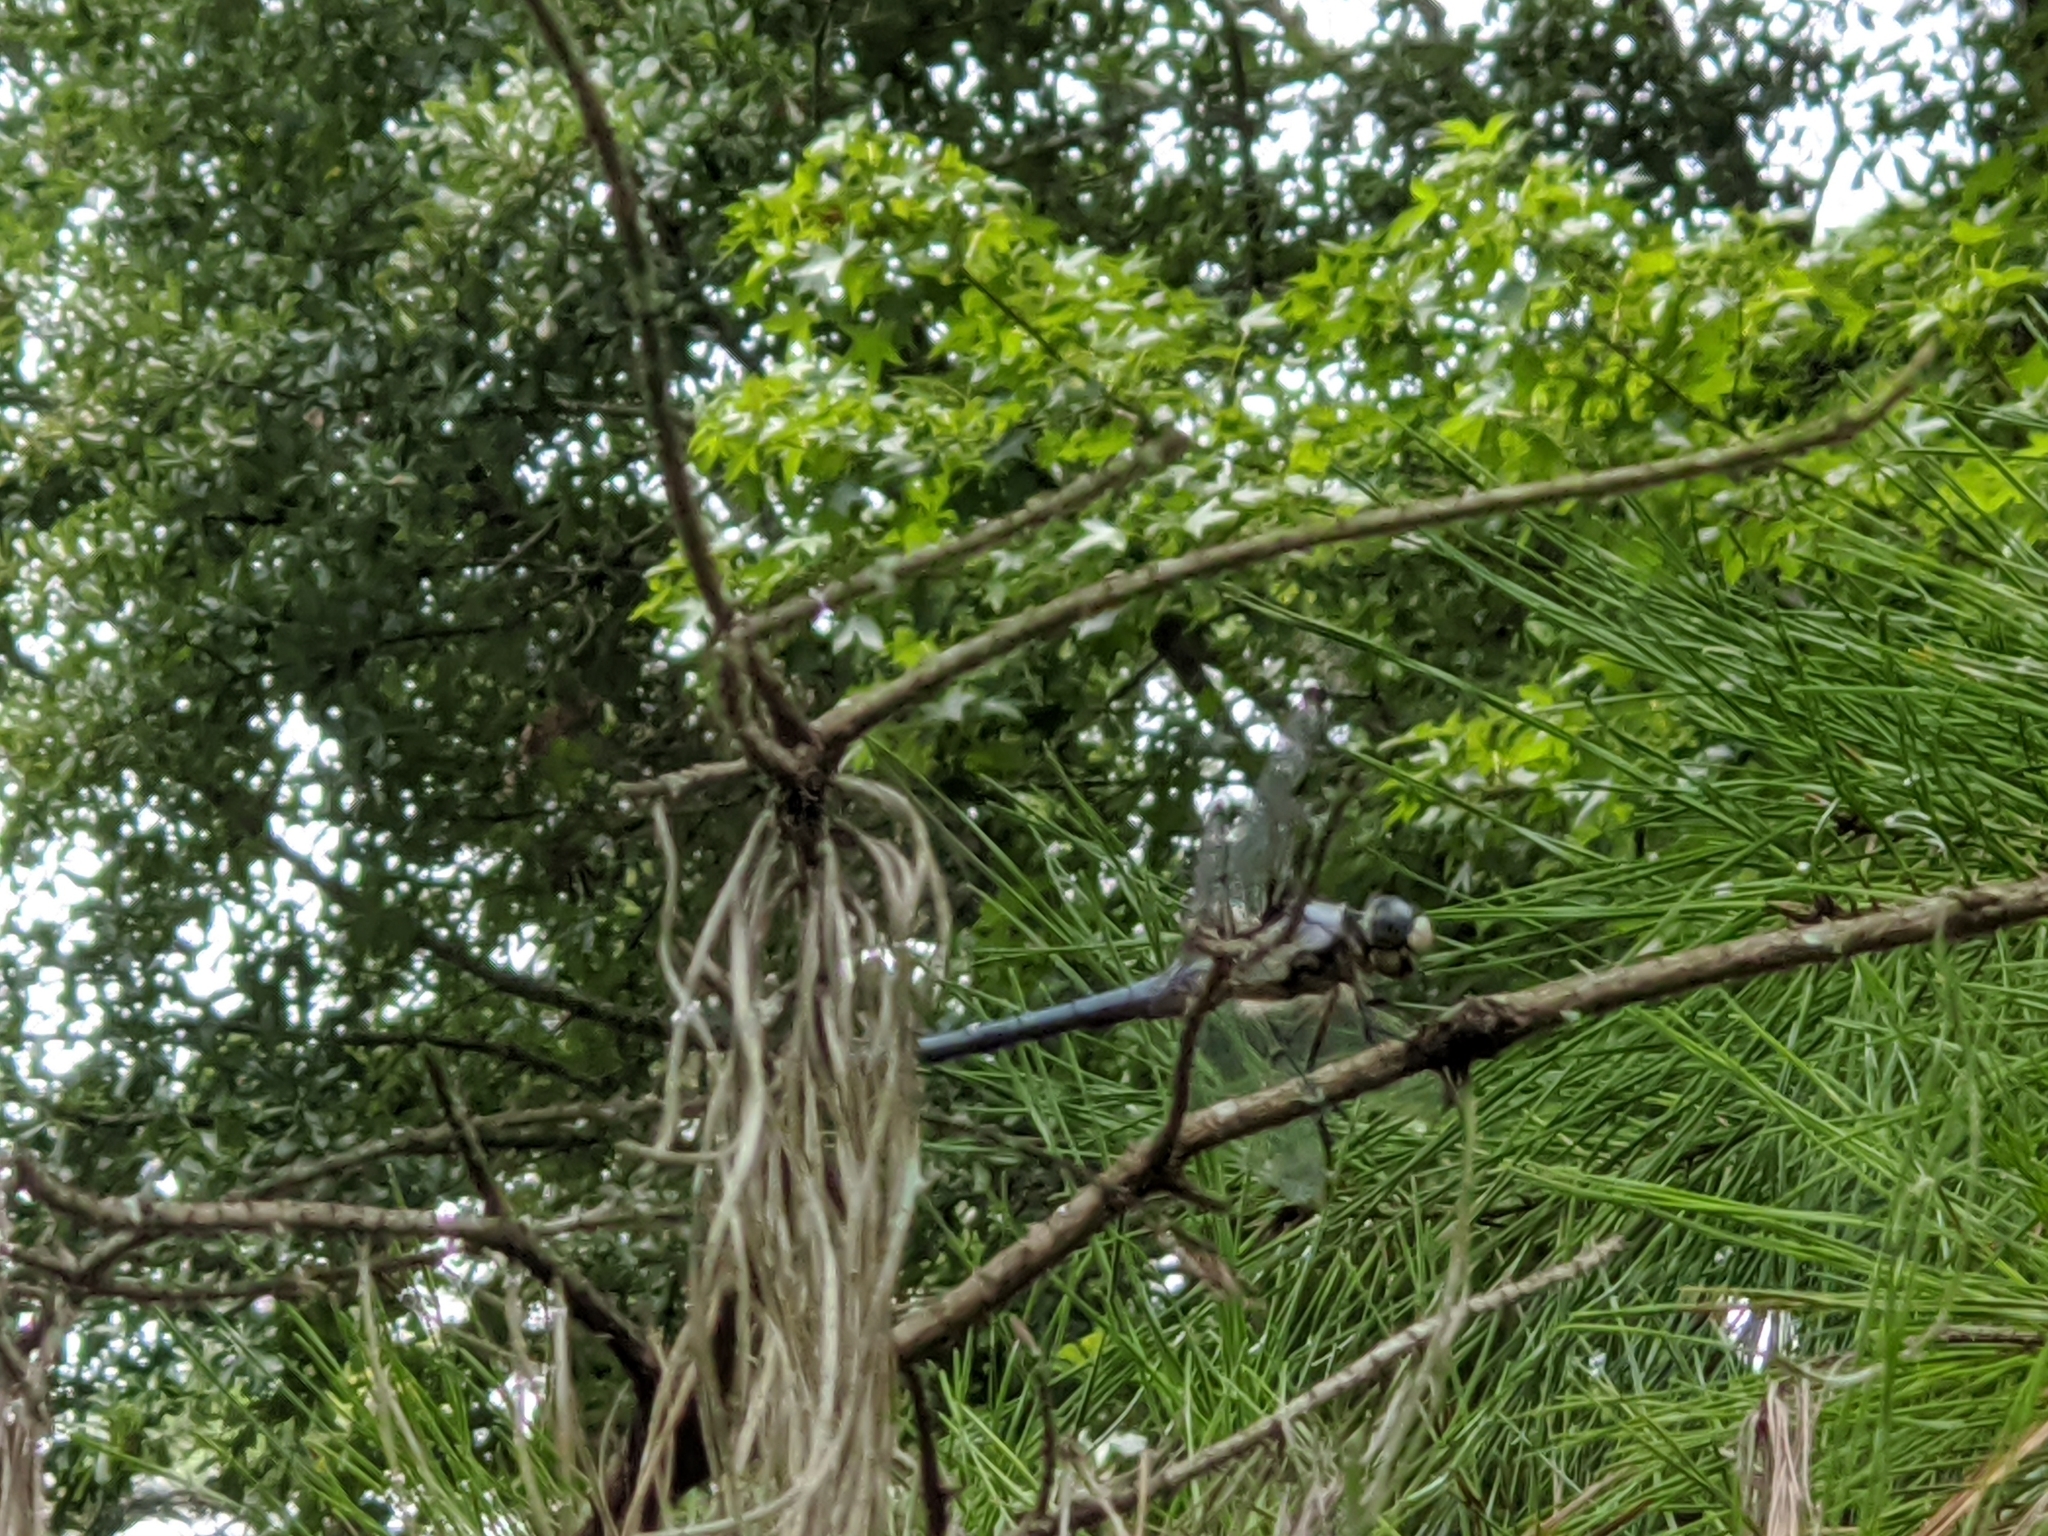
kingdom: Animalia
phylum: Arthropoda
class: Insecta
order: Odonata
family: Libellulidae
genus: Libellula
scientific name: Libellula vibrans
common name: Great blue skimmer
